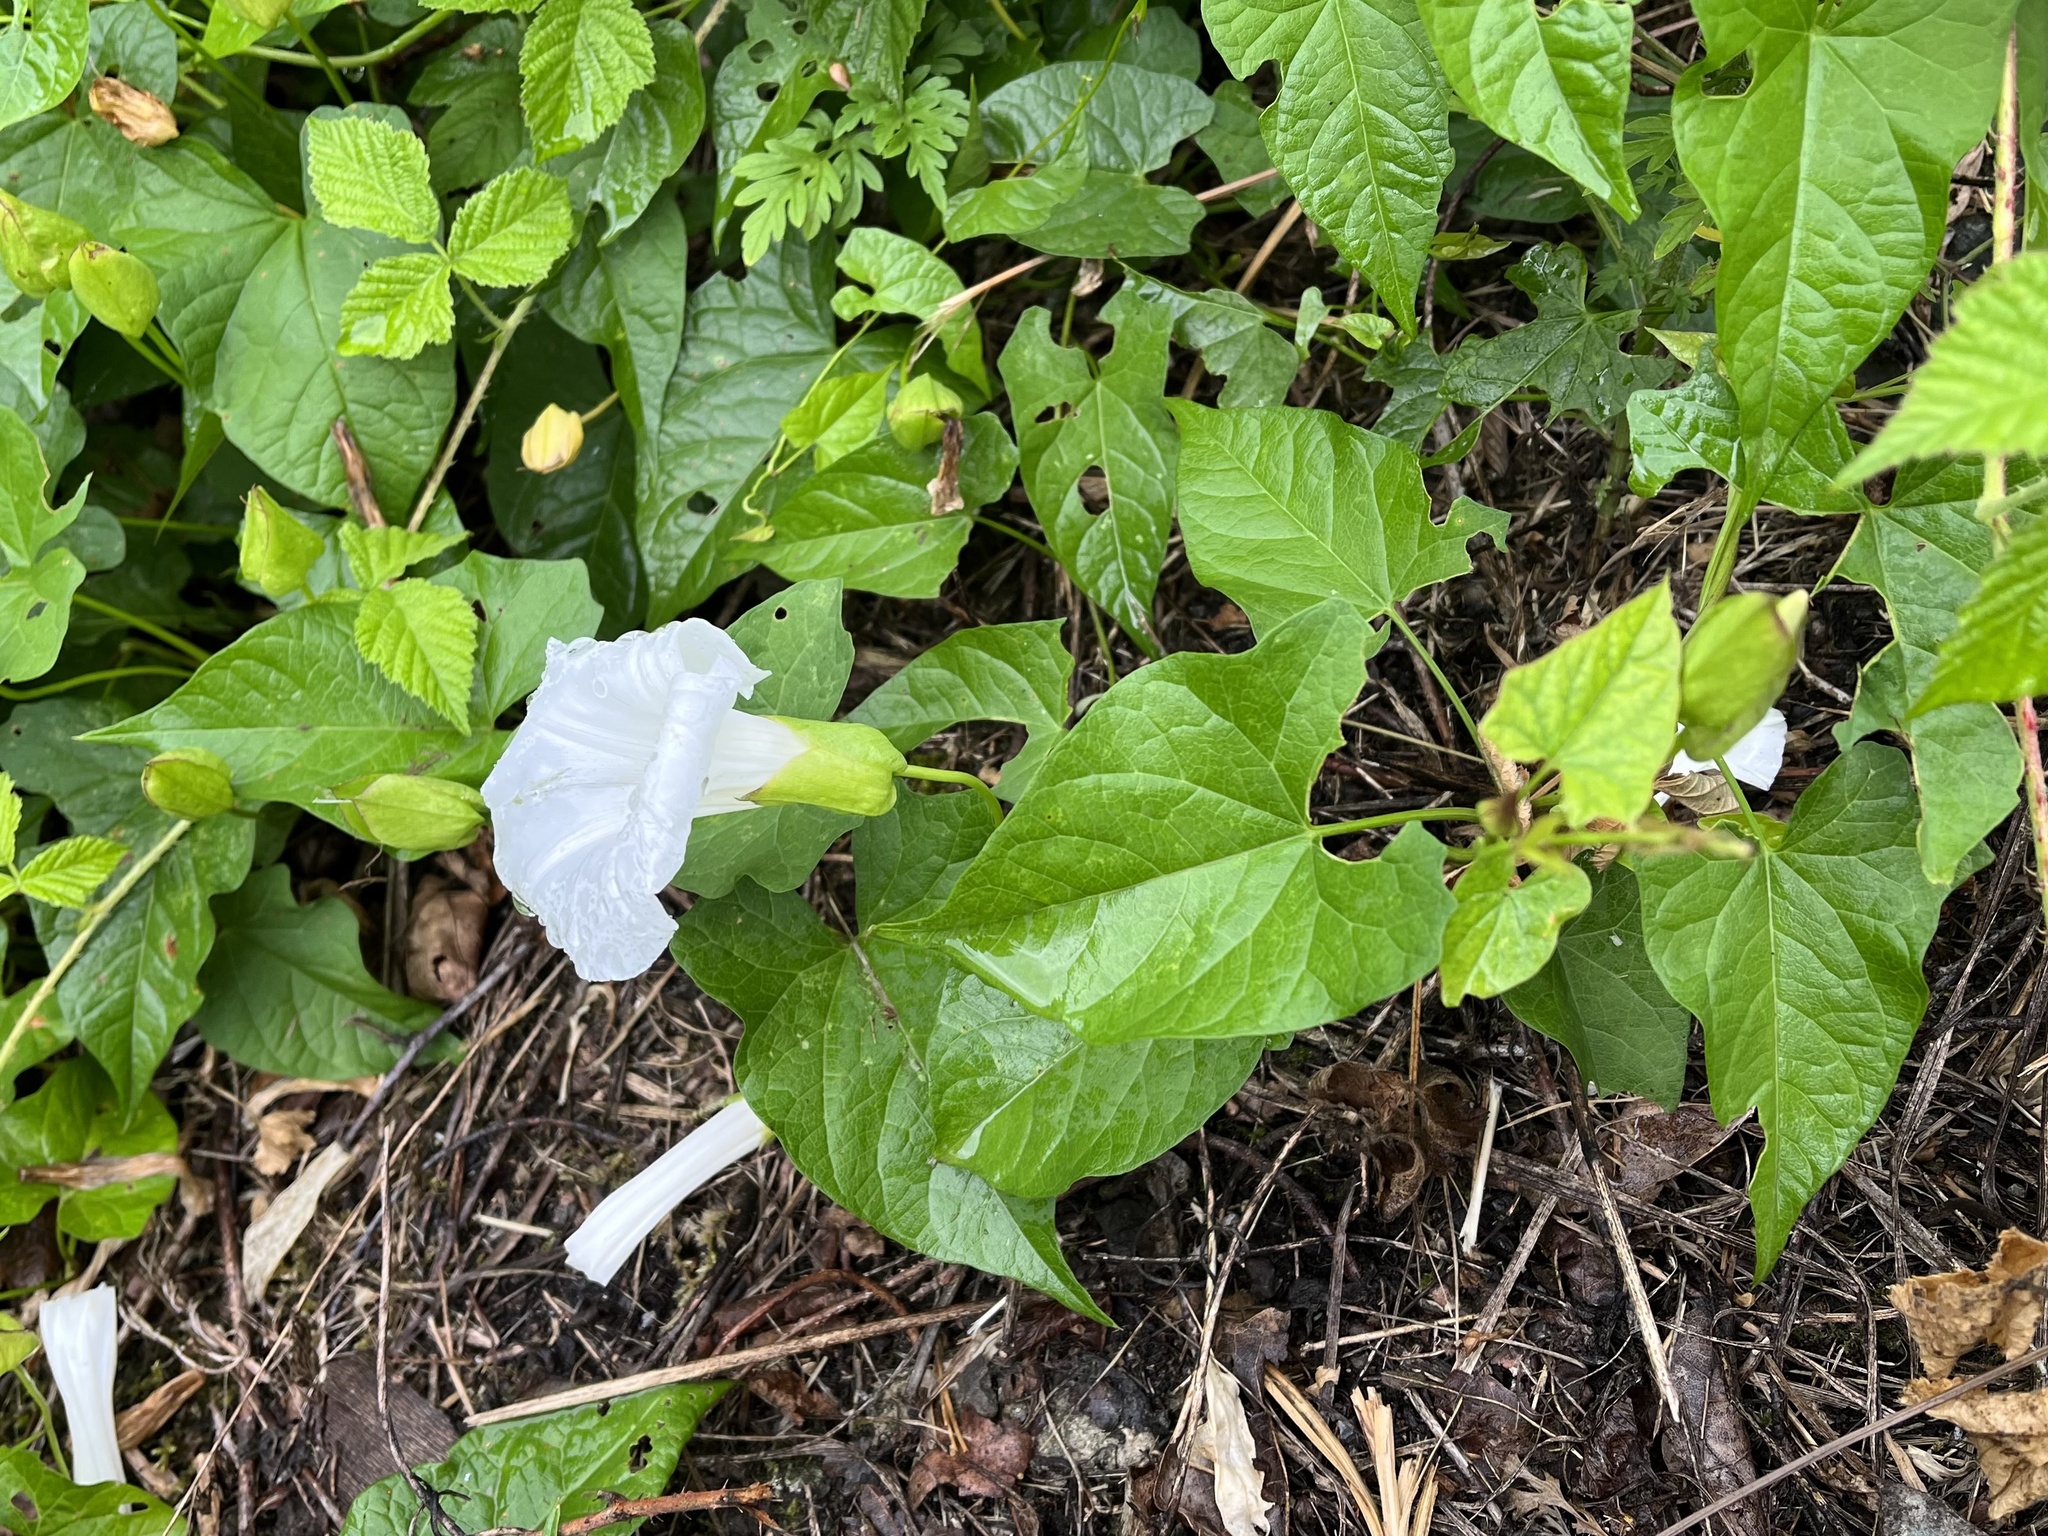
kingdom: Plantae
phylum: Tracheophyta
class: Magnoliopsida
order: Solanales
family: Convolvulaceae
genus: Calystegia
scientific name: Calystegia silvatica
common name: Large bindweed
